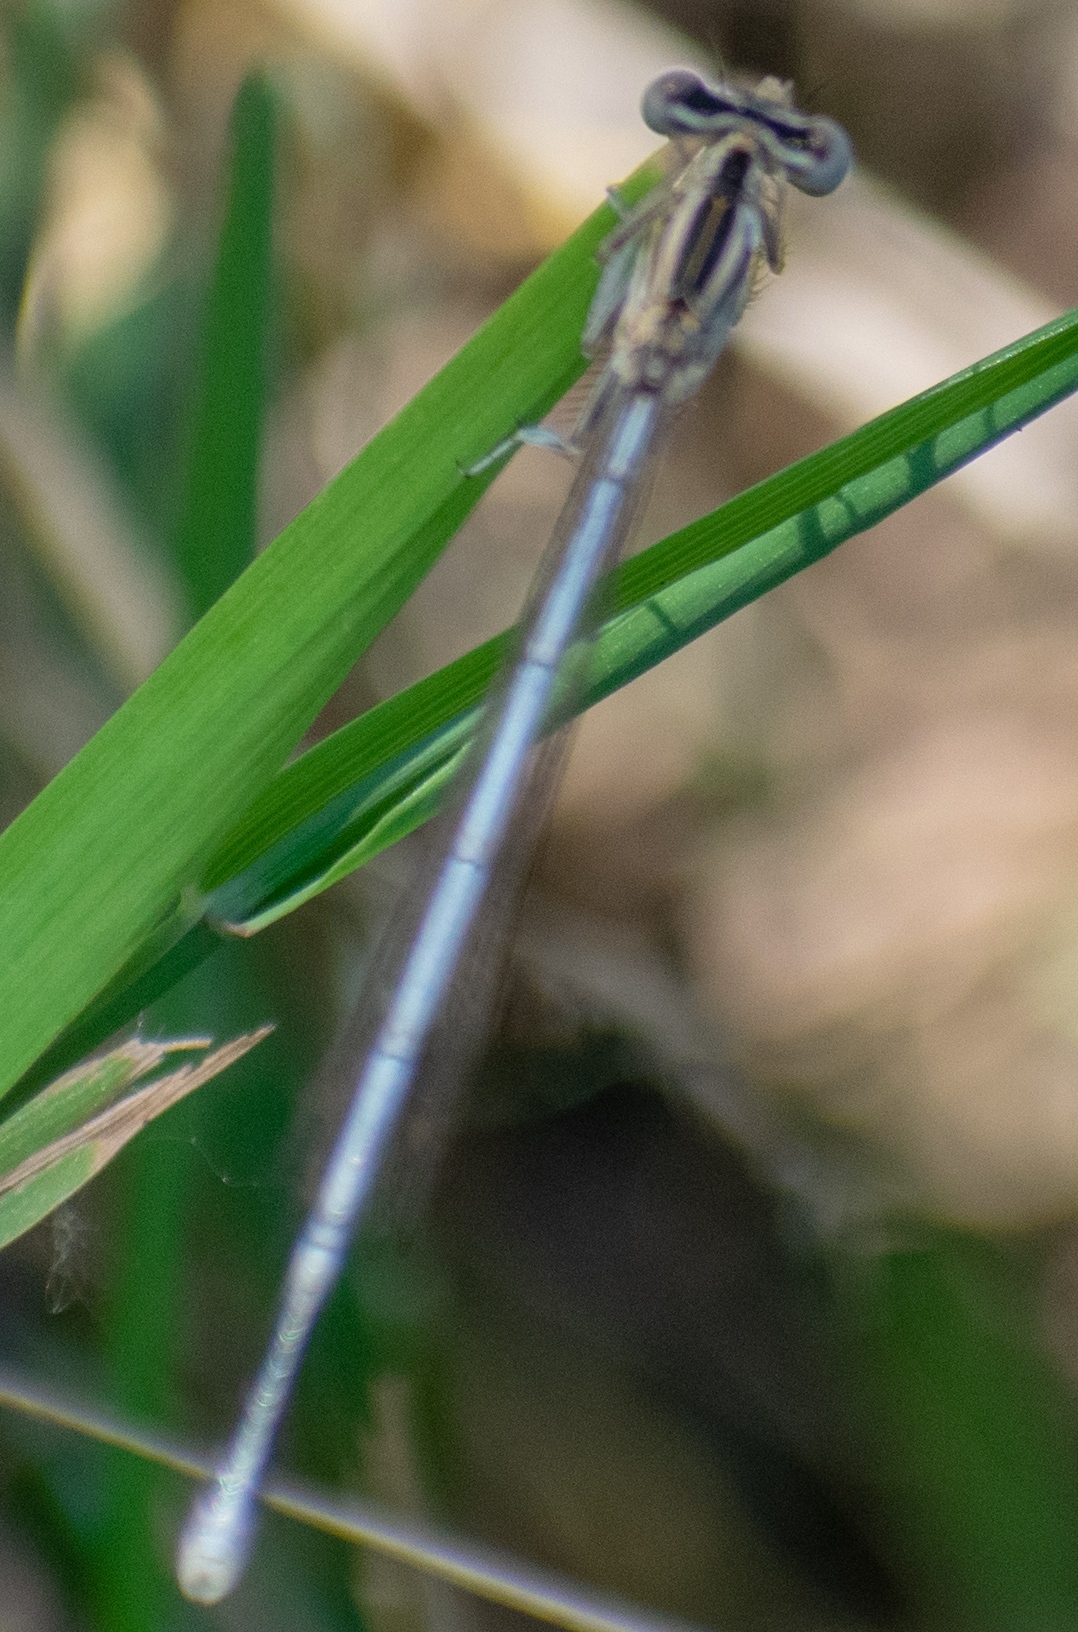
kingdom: Animalia
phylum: Arthropoda
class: Insecta
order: Odonata
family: Platycnemididae
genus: Platycnemis
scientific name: Platycnemis pennipes
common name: White-legged damselfly
